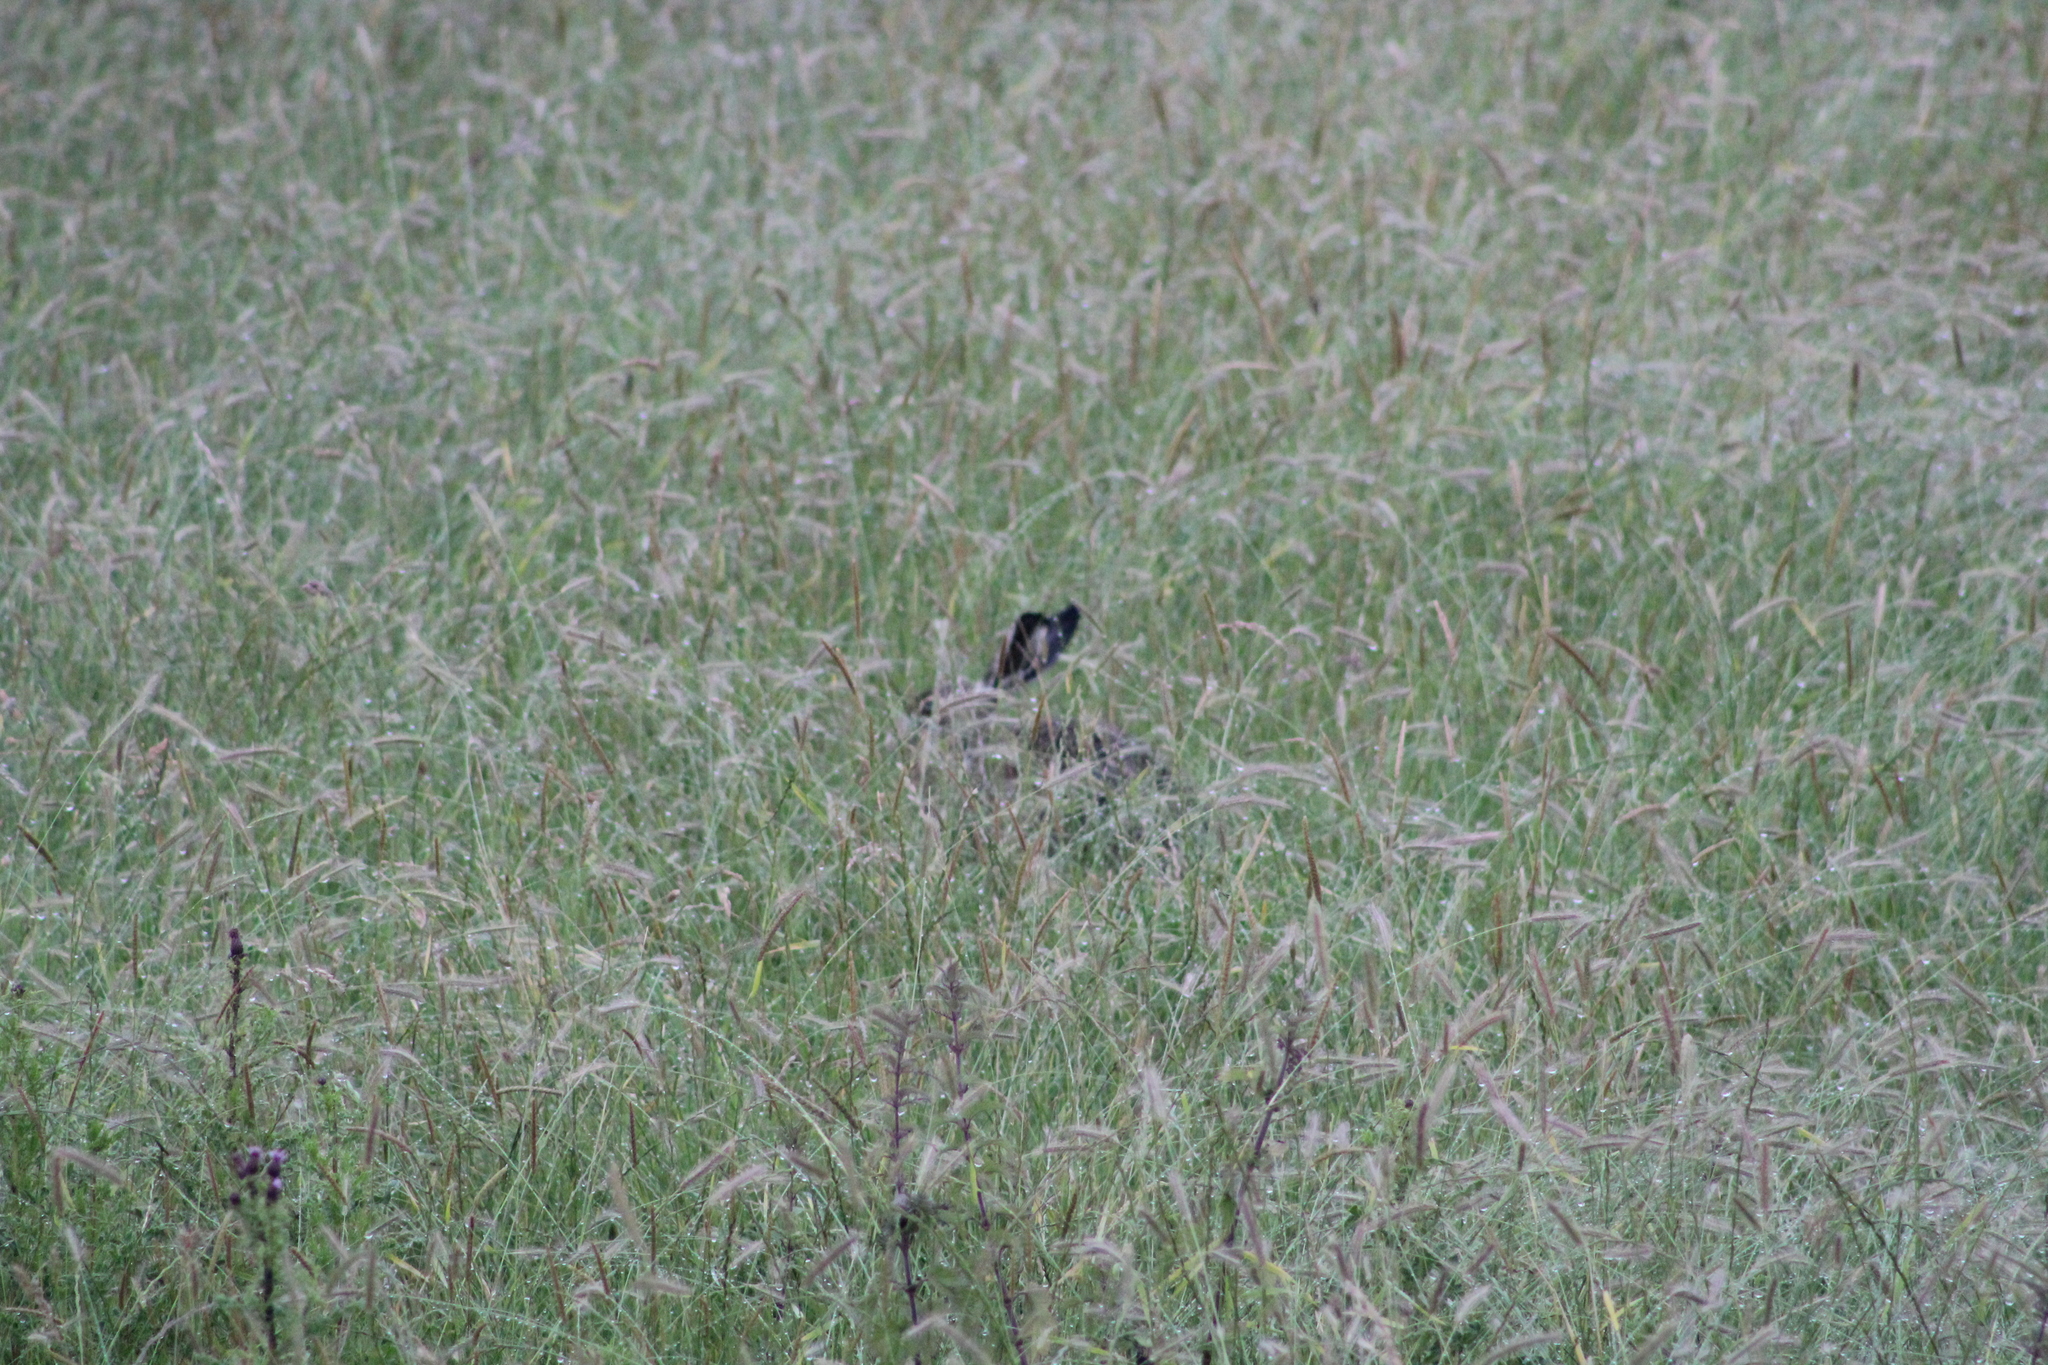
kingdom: Animalia
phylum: Chordata
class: Mammalia
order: Lagomorpha
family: Leporidae
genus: Lepus
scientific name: Lepus europaeus
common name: European hare
